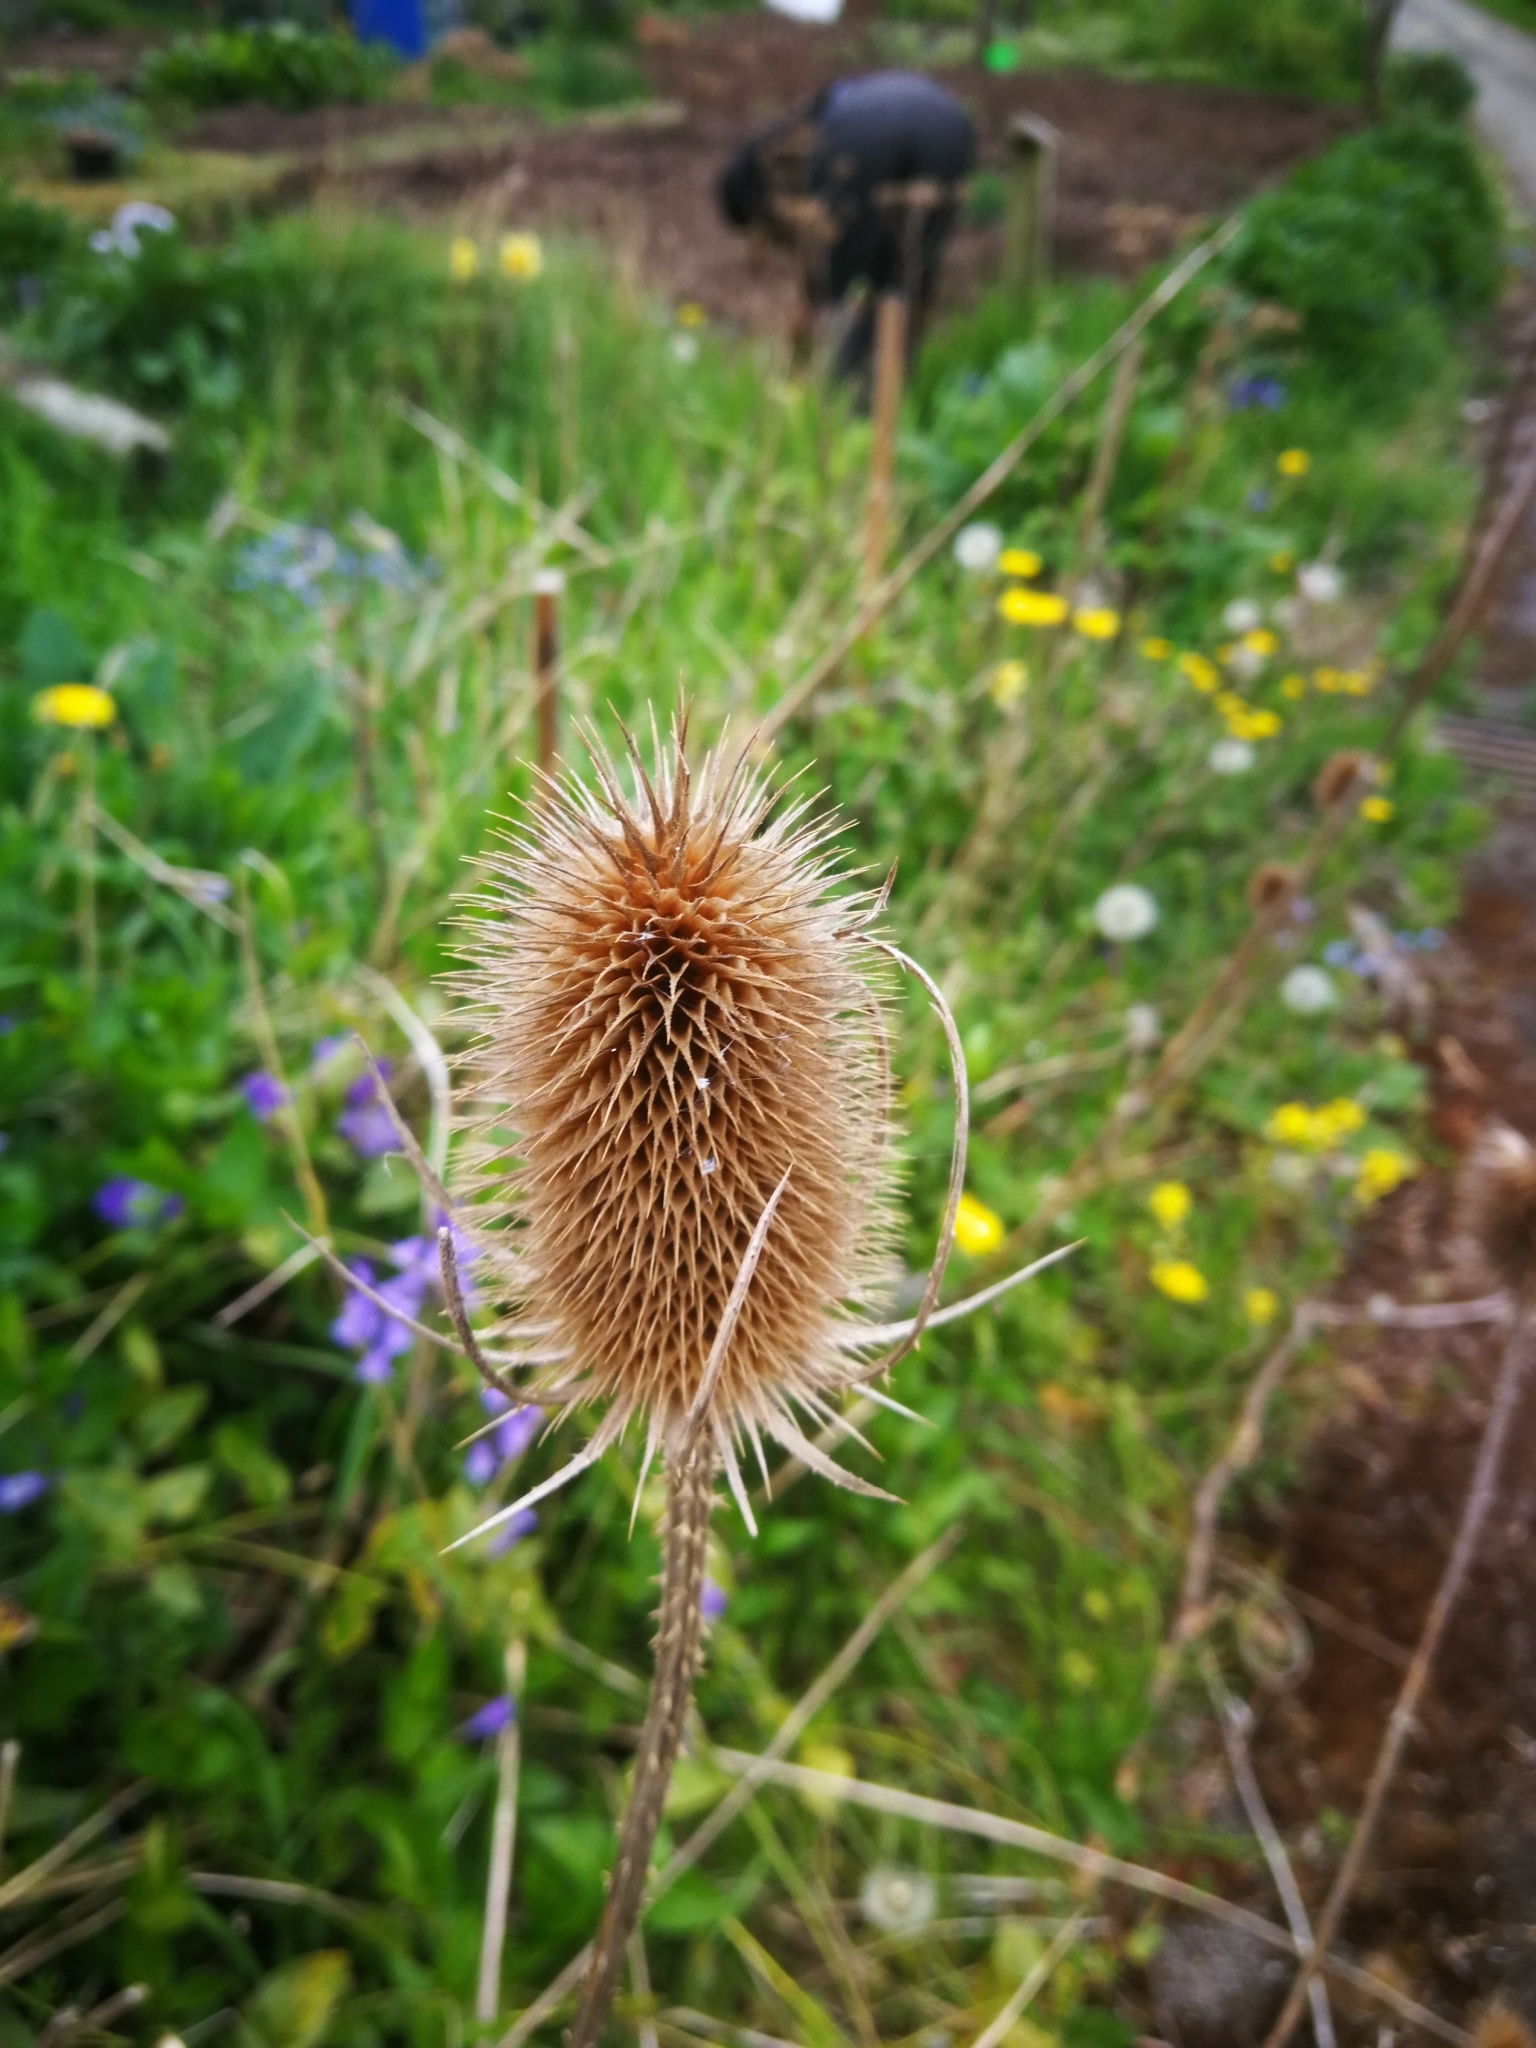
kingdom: Plantae
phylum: Tracheophyta
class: Magnoliopsida
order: Dipsacales
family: Caprifoliaceae
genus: Dipsacus
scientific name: Dipsacus fullonum
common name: Teasel
